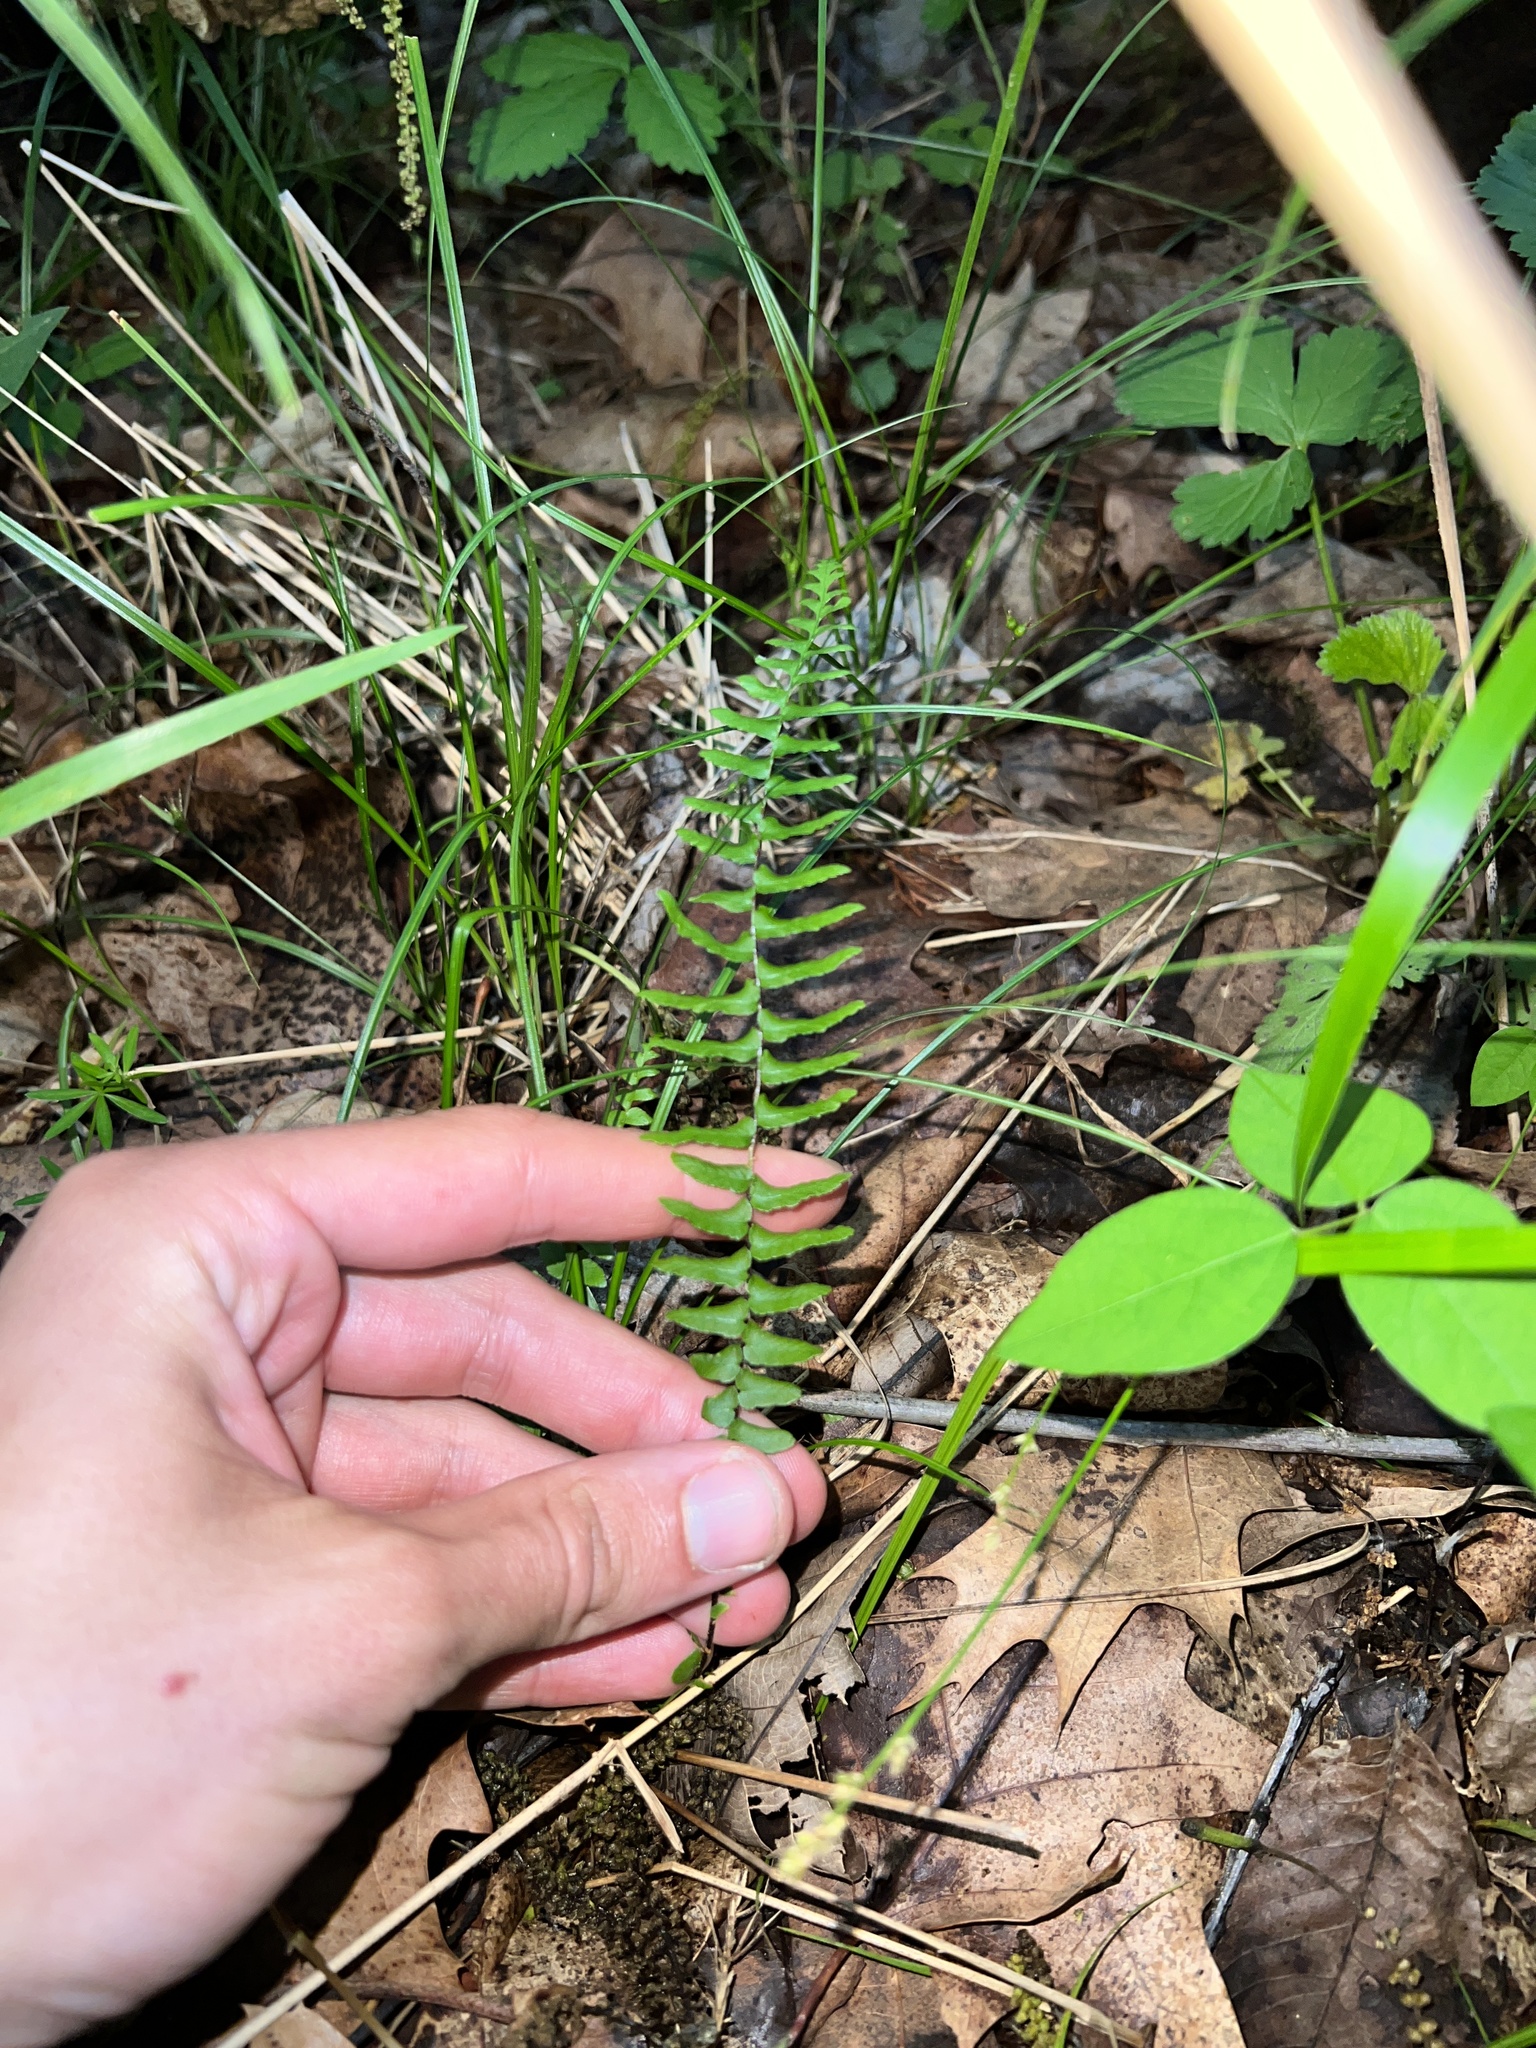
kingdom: Plantae
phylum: Tracheophyta
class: Polypodiopsida
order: Polypodiales
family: Aspleniaceae
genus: Asplenium
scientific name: Asplenium platyneuron
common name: Ebony spleenwort
